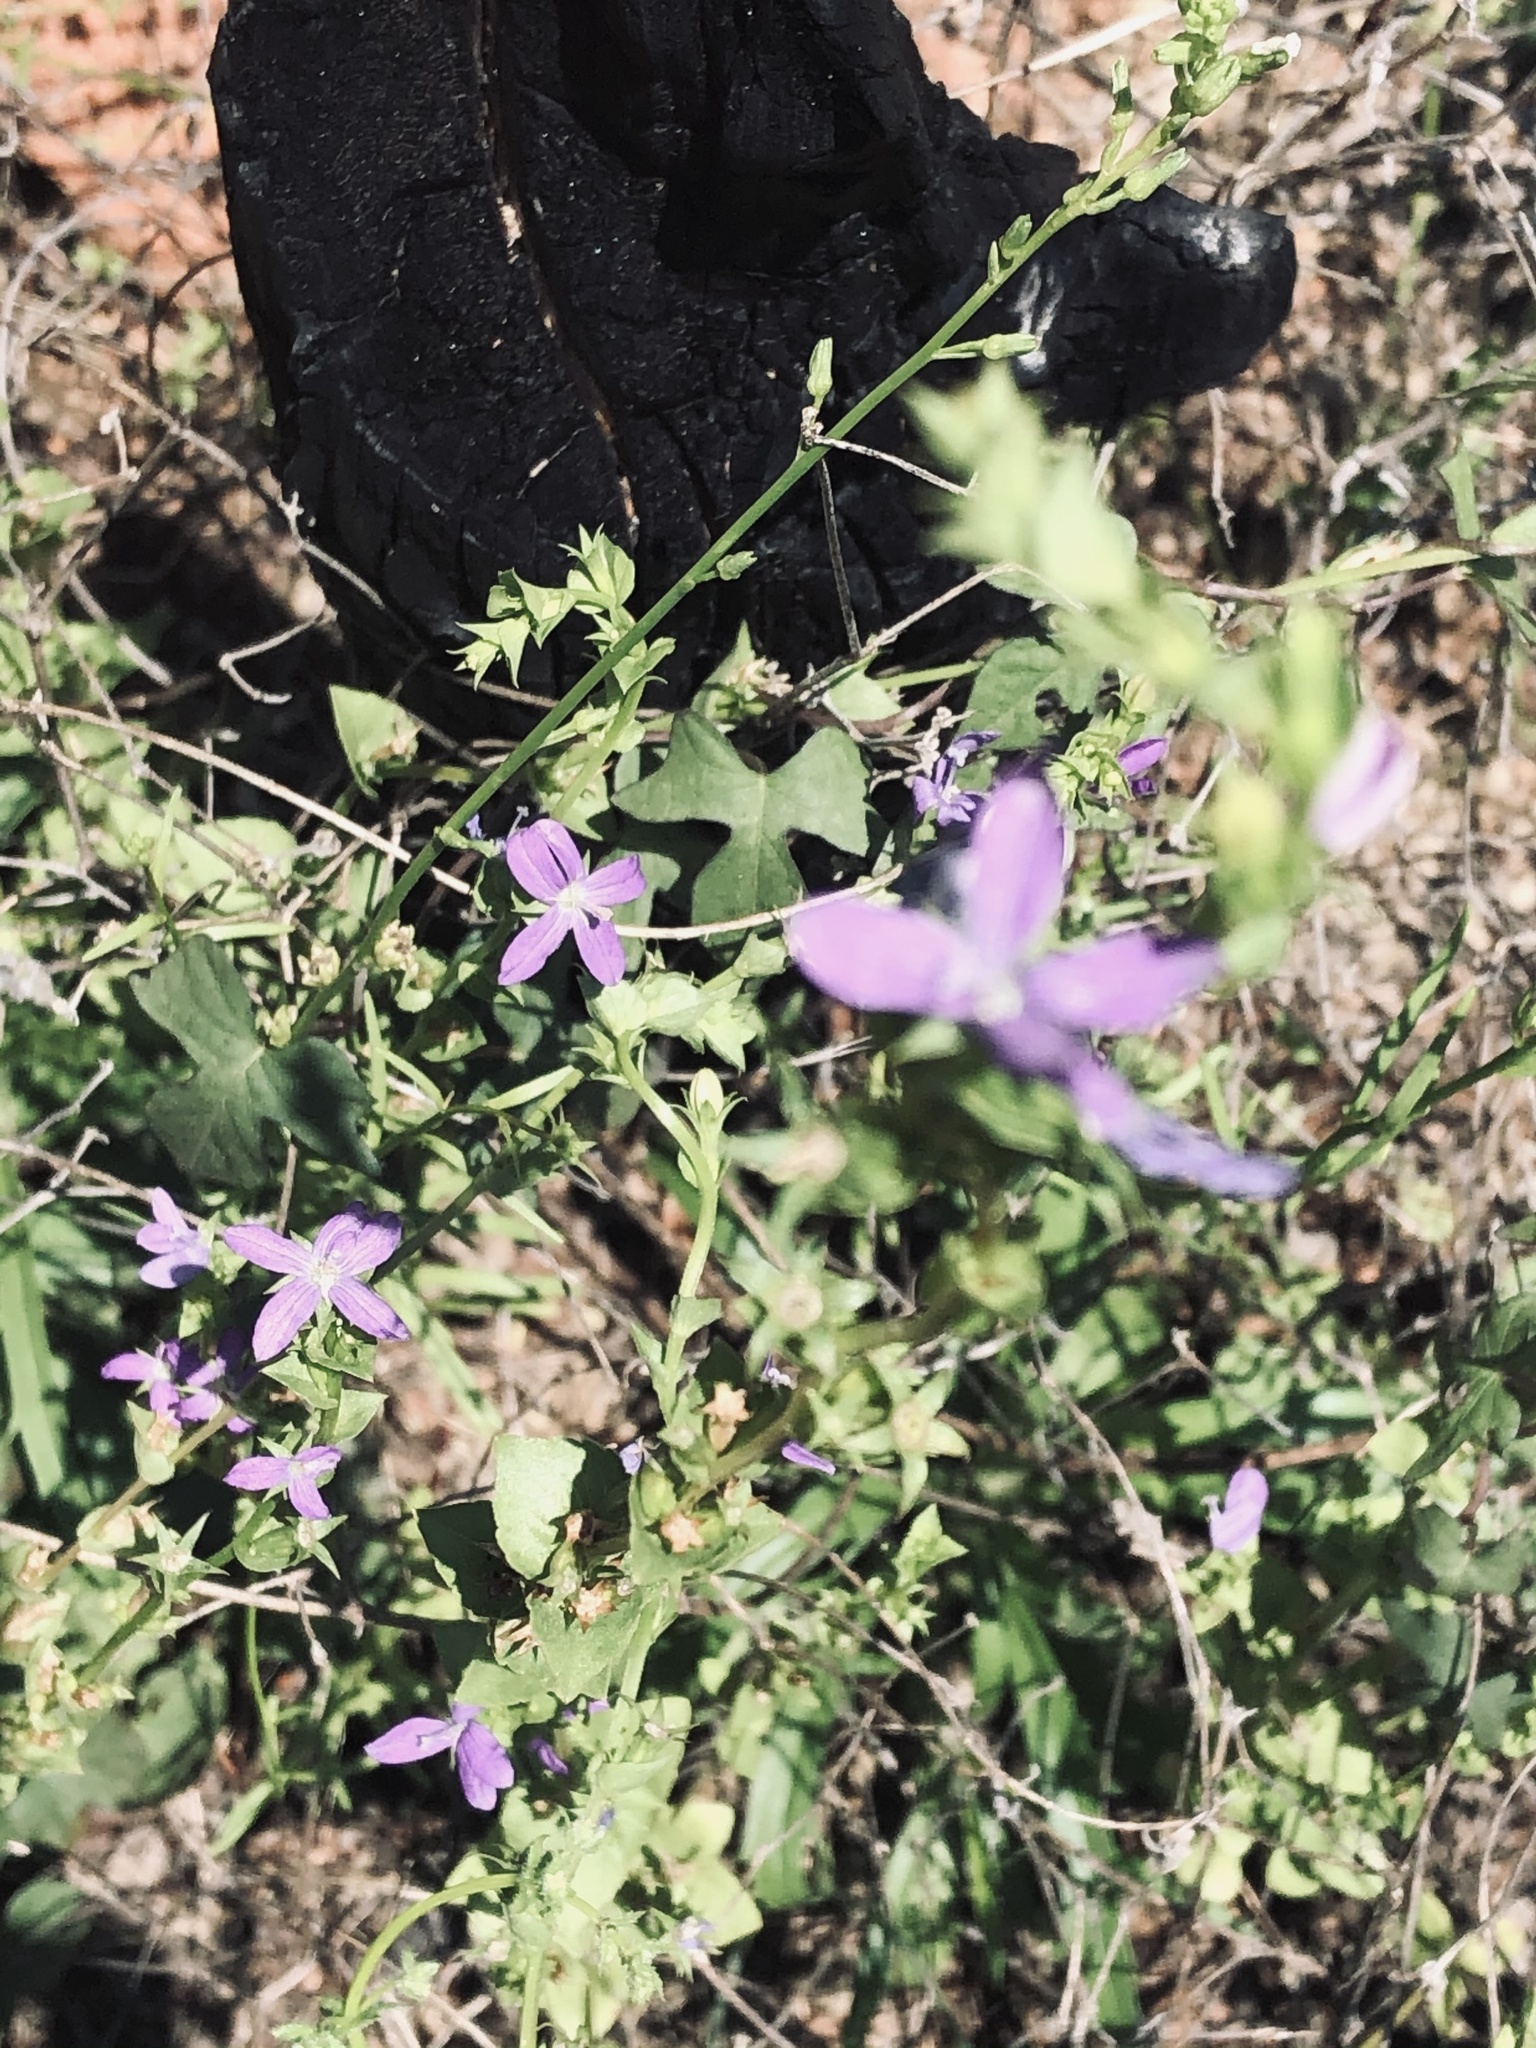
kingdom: Plantae
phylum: Tracheophyta
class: Magnoliopsida
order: Asterales
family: Campanulaceae
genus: Triodanis
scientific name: Triodanis
